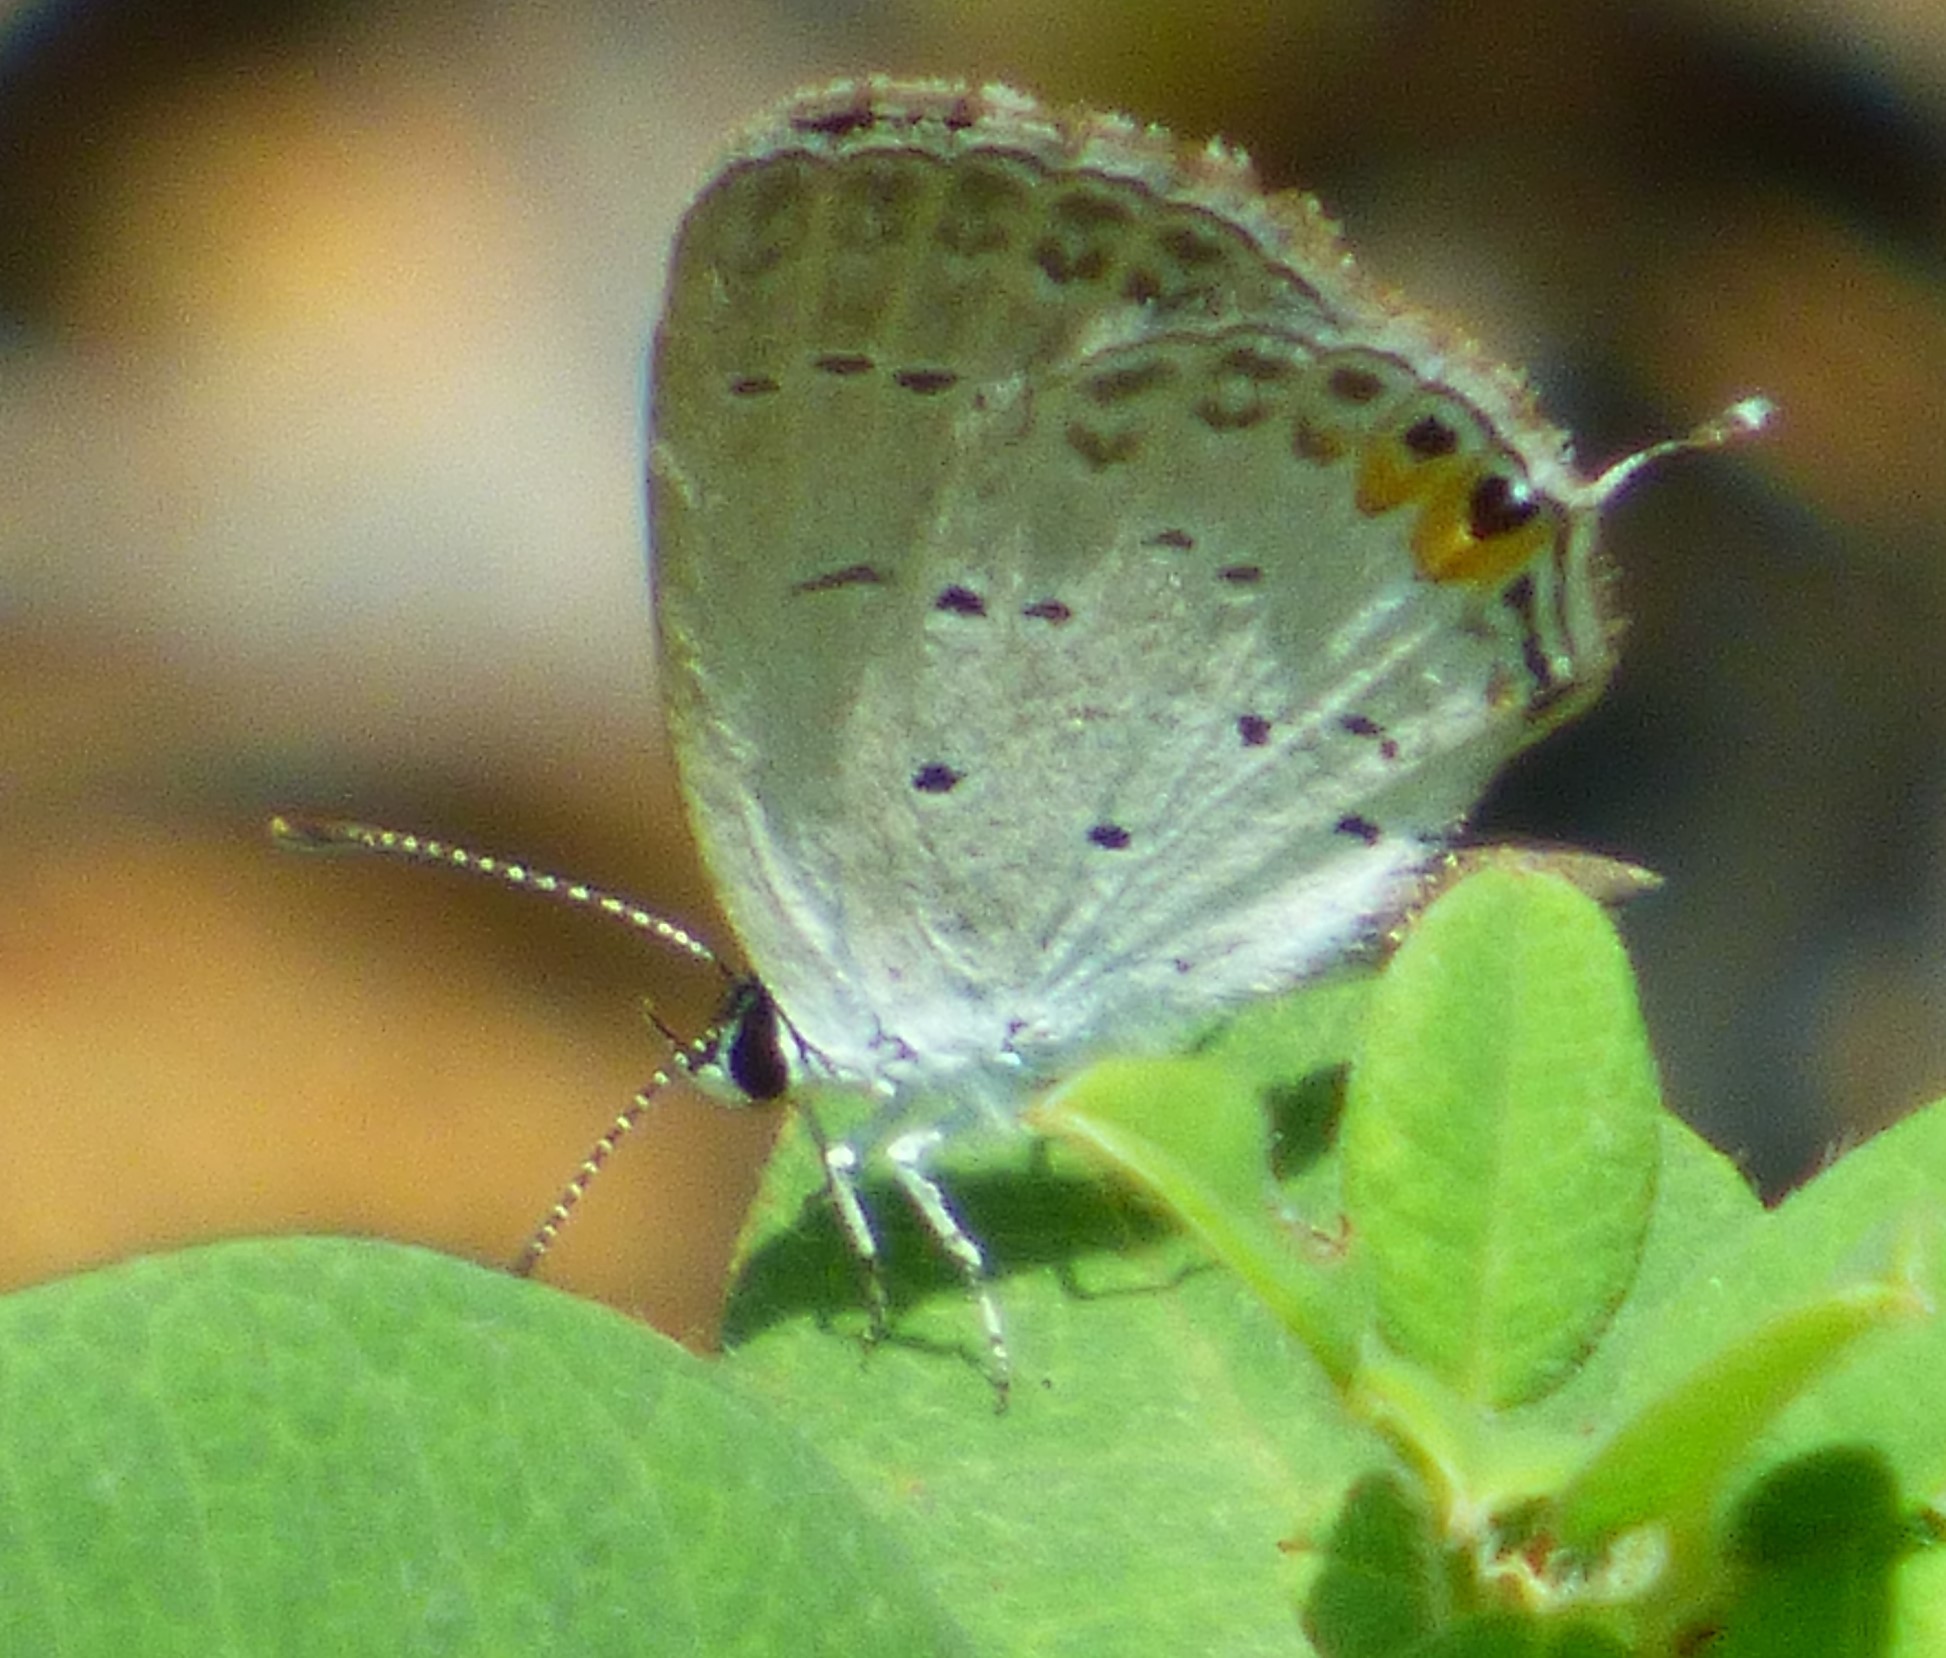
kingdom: Animalia
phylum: Arthropoda
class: Insecta
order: Lepidoptera
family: Lycaenidae
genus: Elkalyce
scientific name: Elkalyce comyntas
